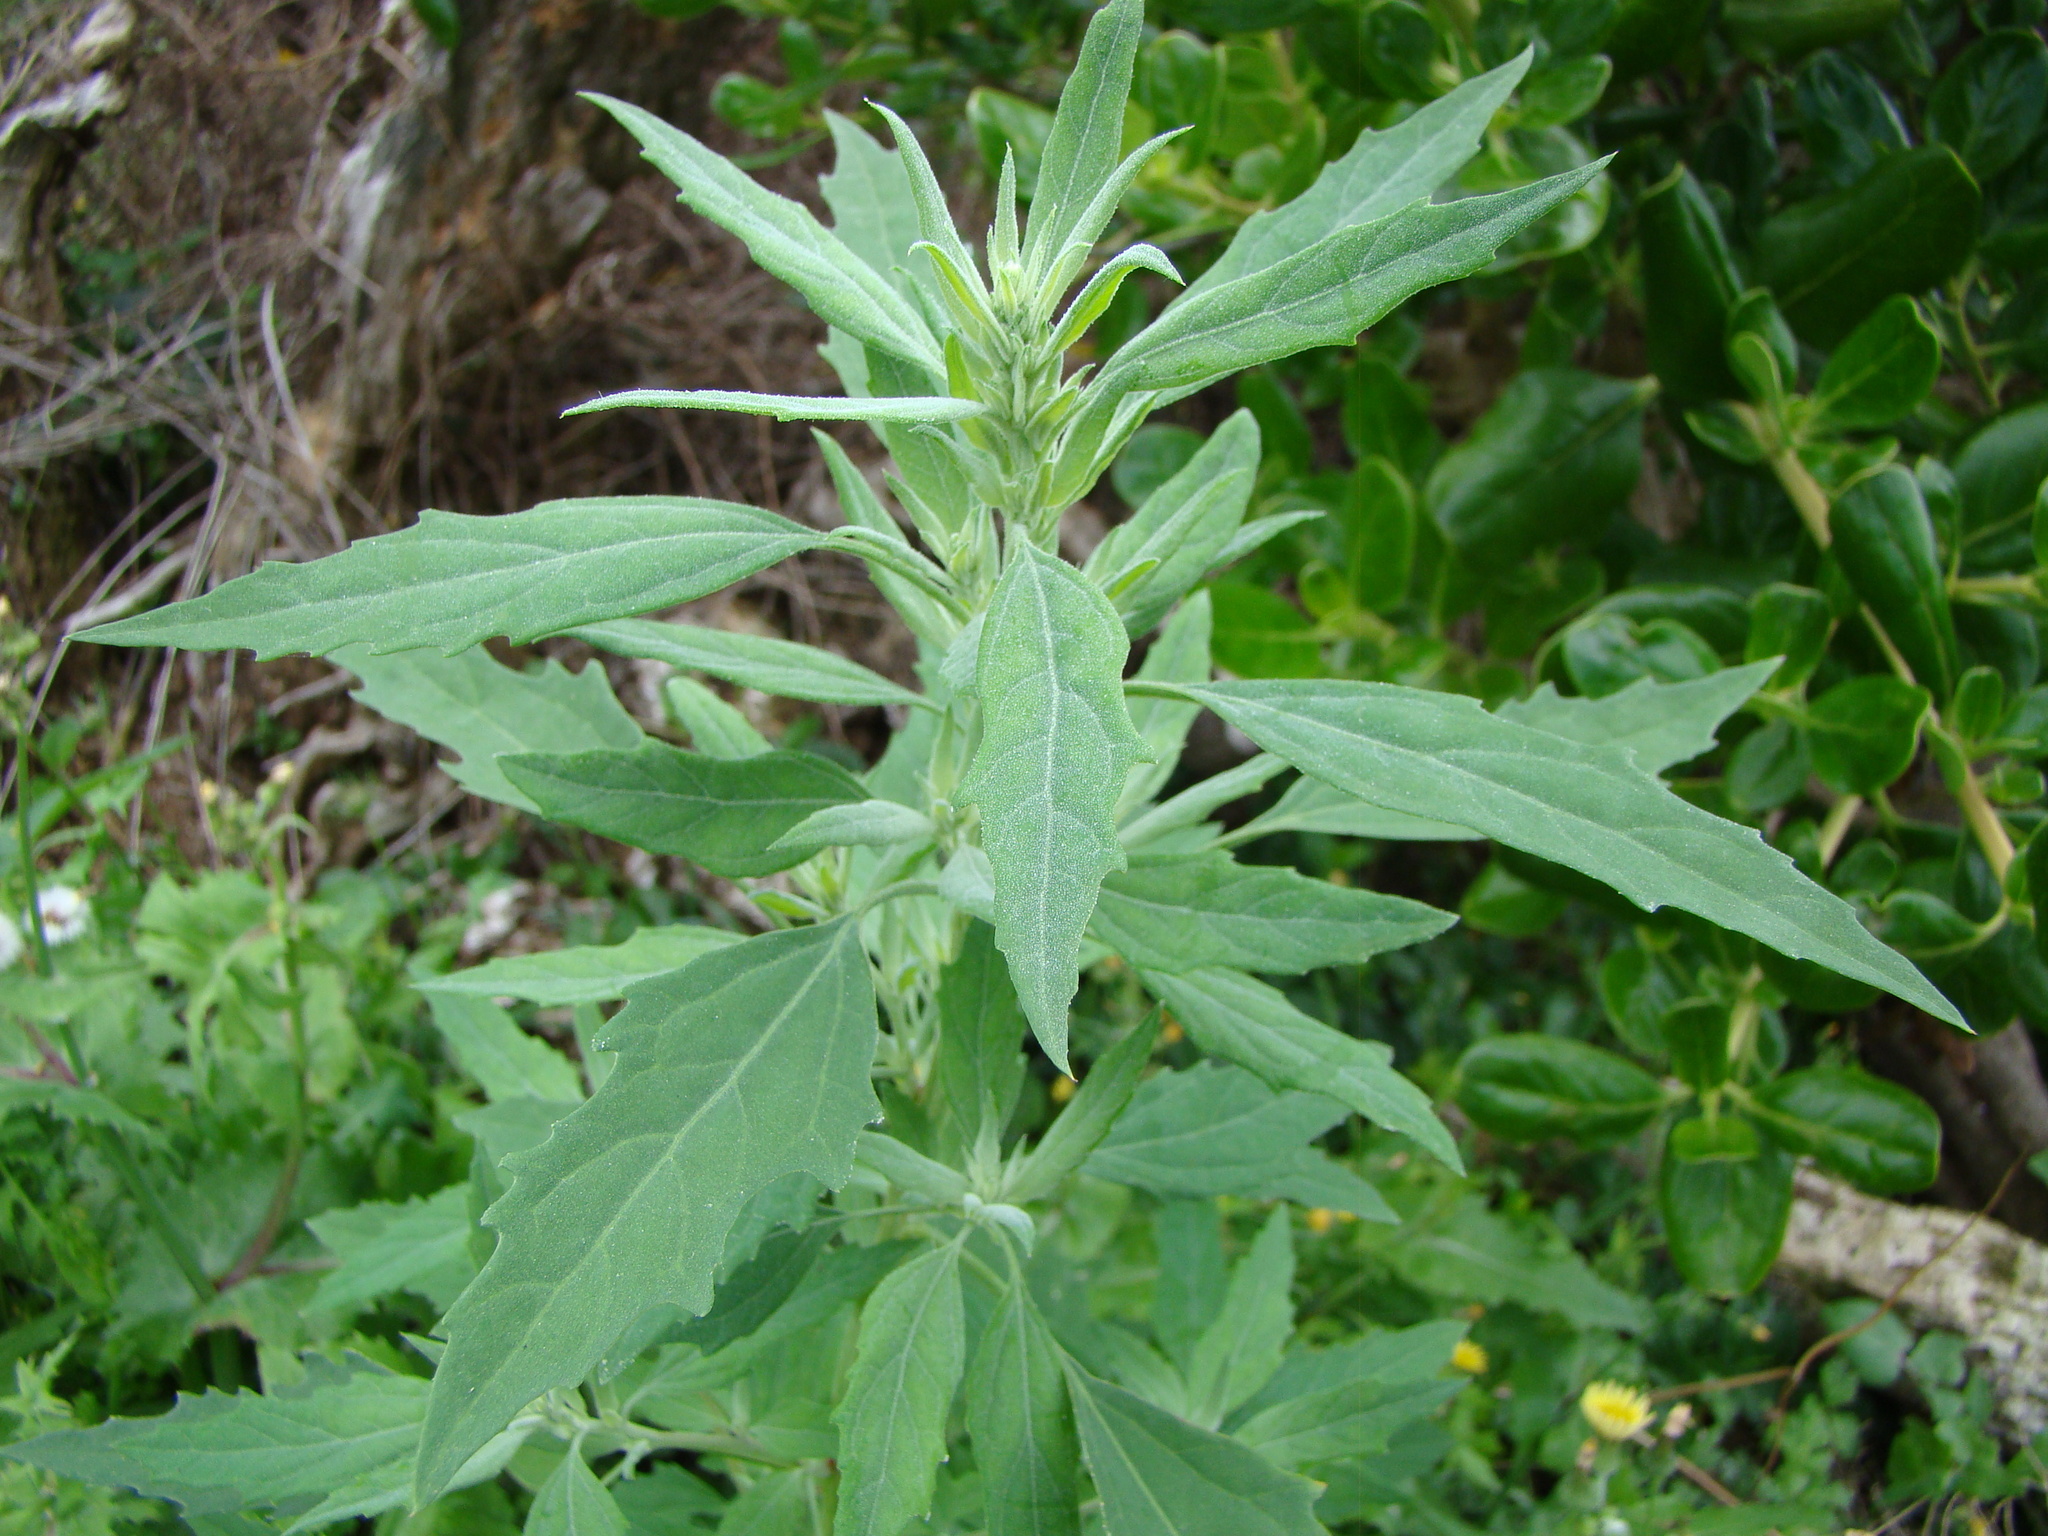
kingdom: Plantae
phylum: Tracheophyta
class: Magnoliopsida
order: Caryophyllales
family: Amaranthaceae
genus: Chenopodium
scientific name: Chenopodium album
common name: Fat-hen
